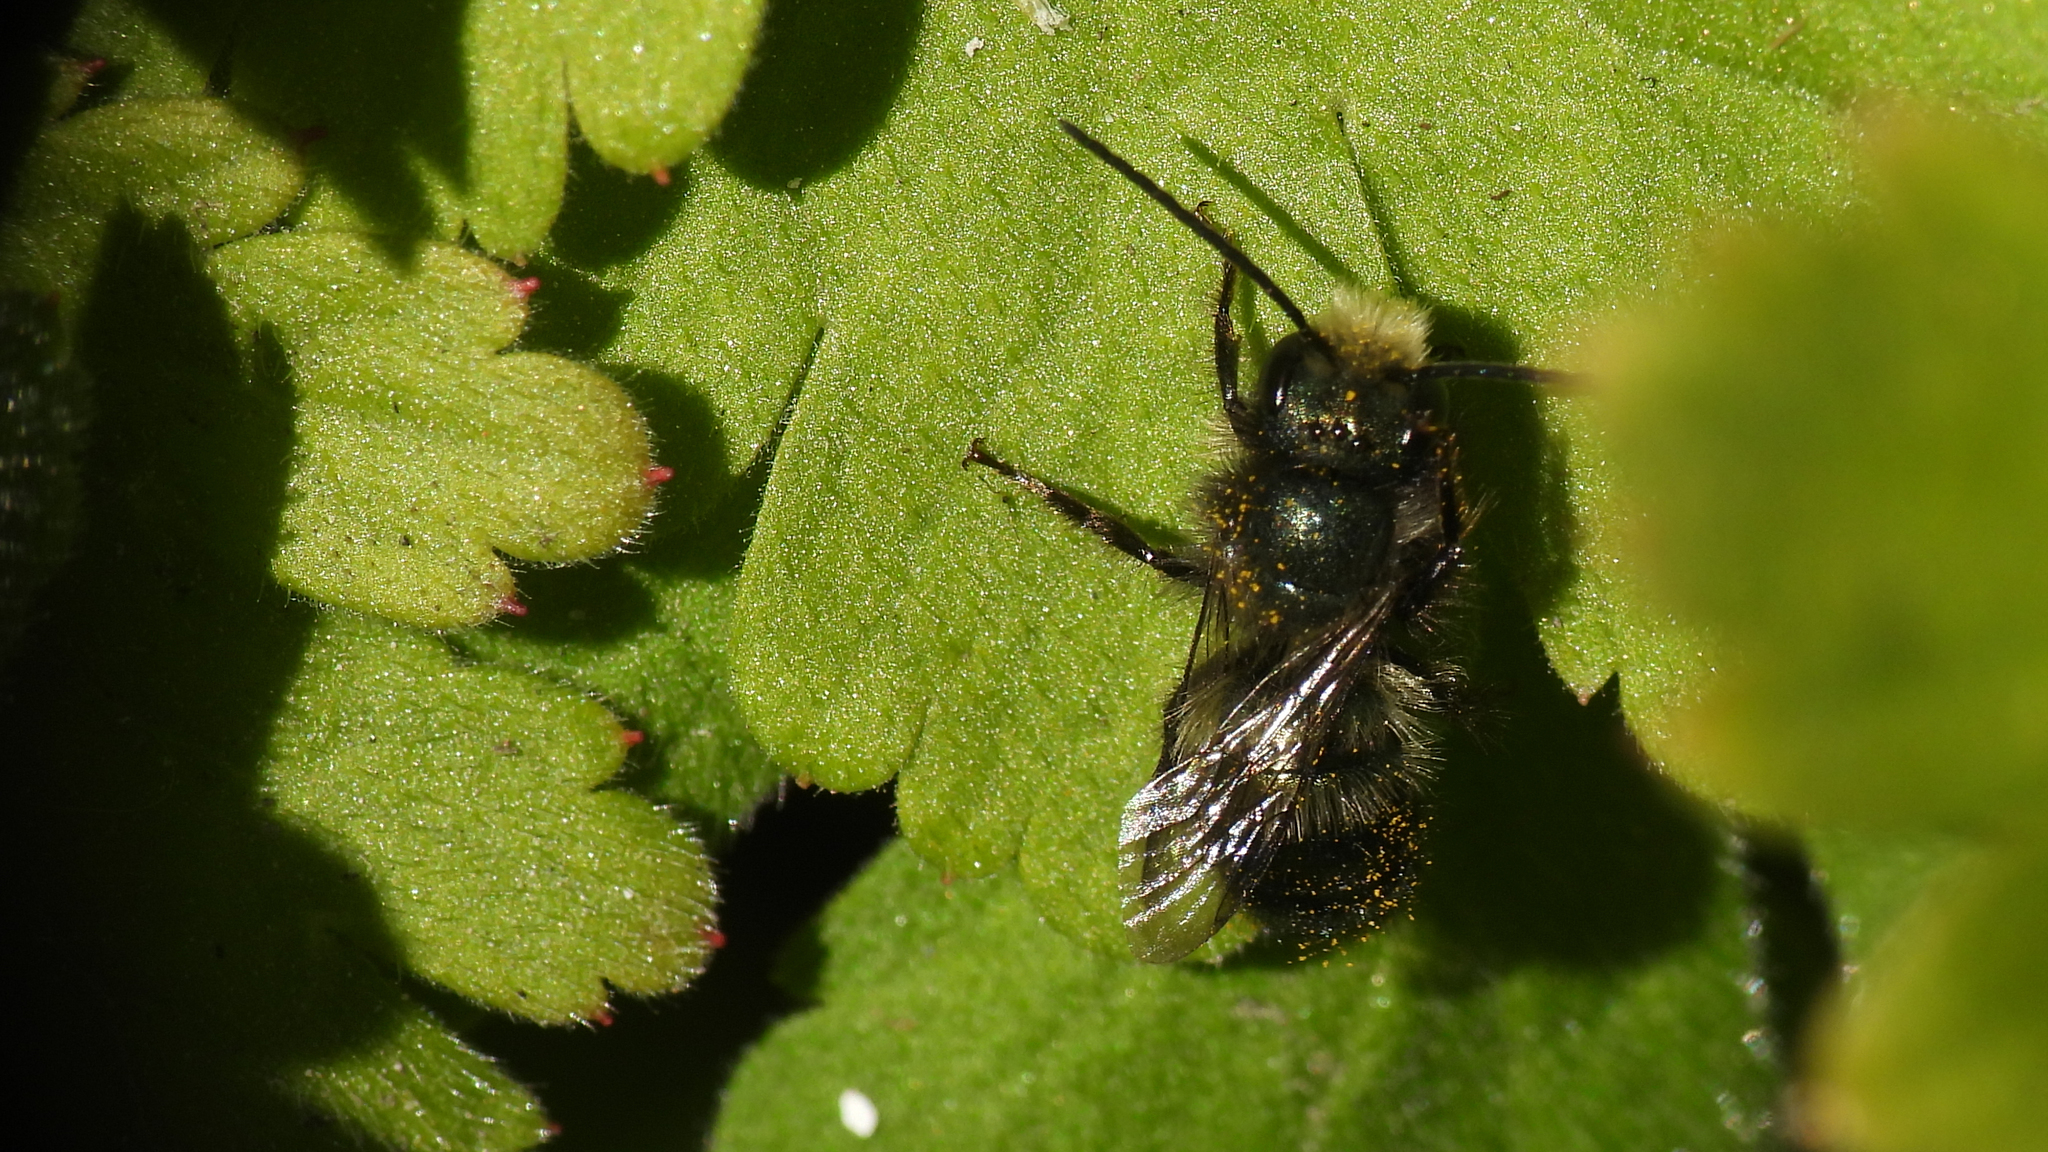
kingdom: Animalia
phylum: Arthropoda
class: Insecta
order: Hymenoptera
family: Megachilidae
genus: Osmia
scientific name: Osmia lignaria
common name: Blue orchard bee
